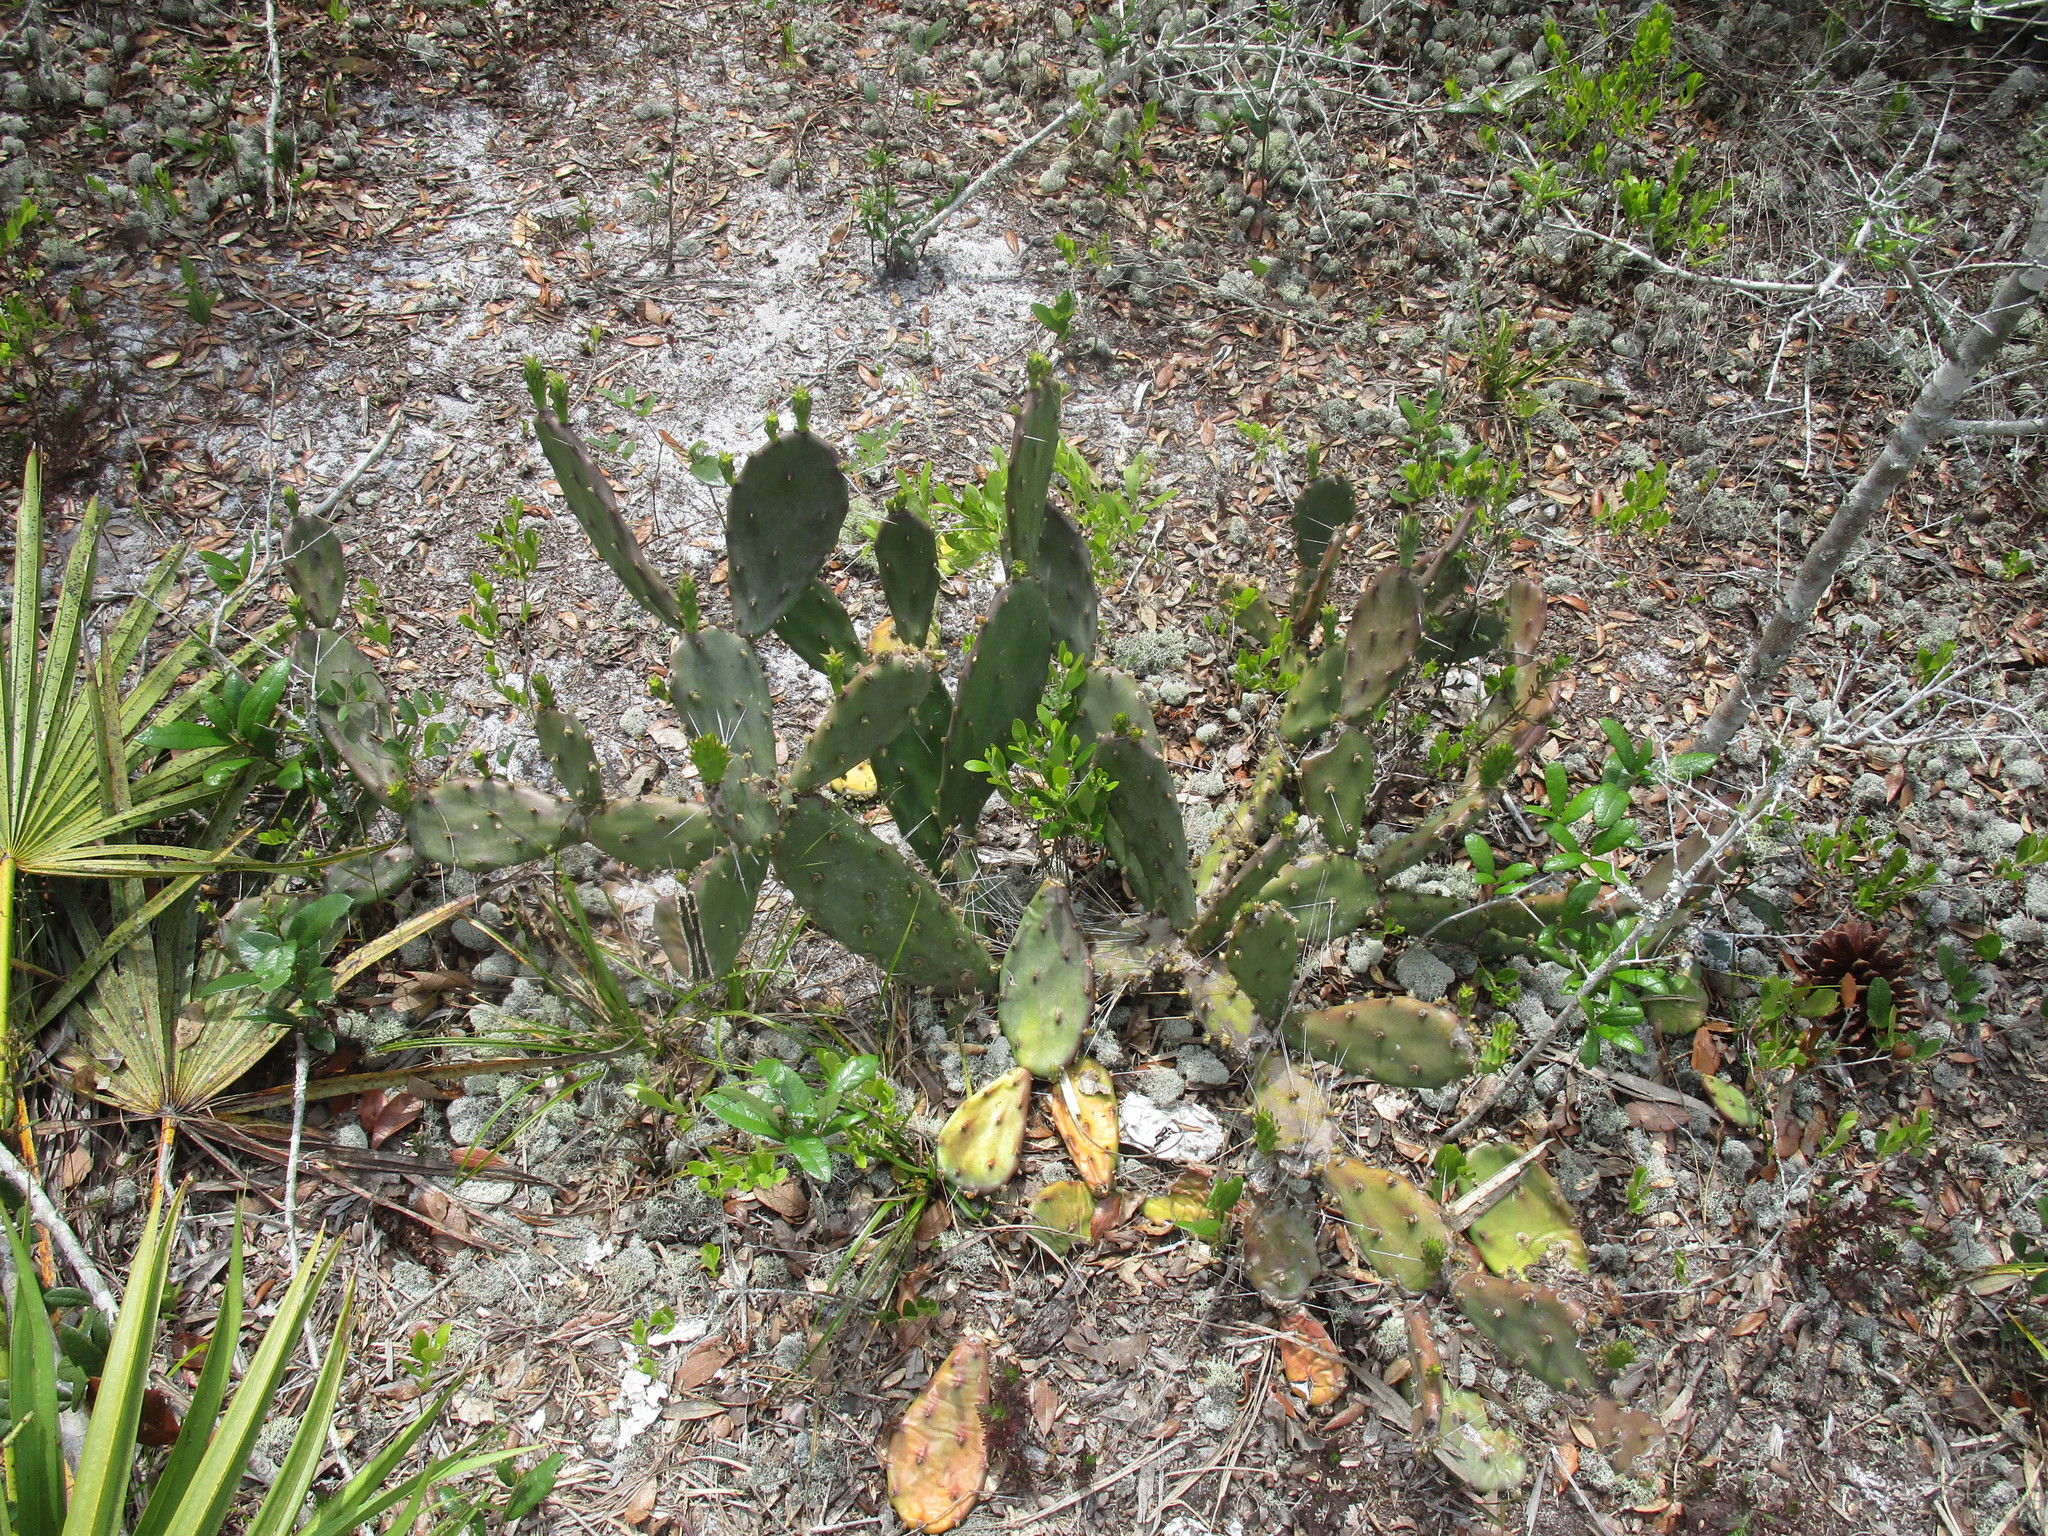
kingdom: Plantae
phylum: Tracheophyta
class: Magnoliopsida
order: Caryophyllales
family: Cactaceae
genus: Opuntia
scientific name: Opuntia austrina
